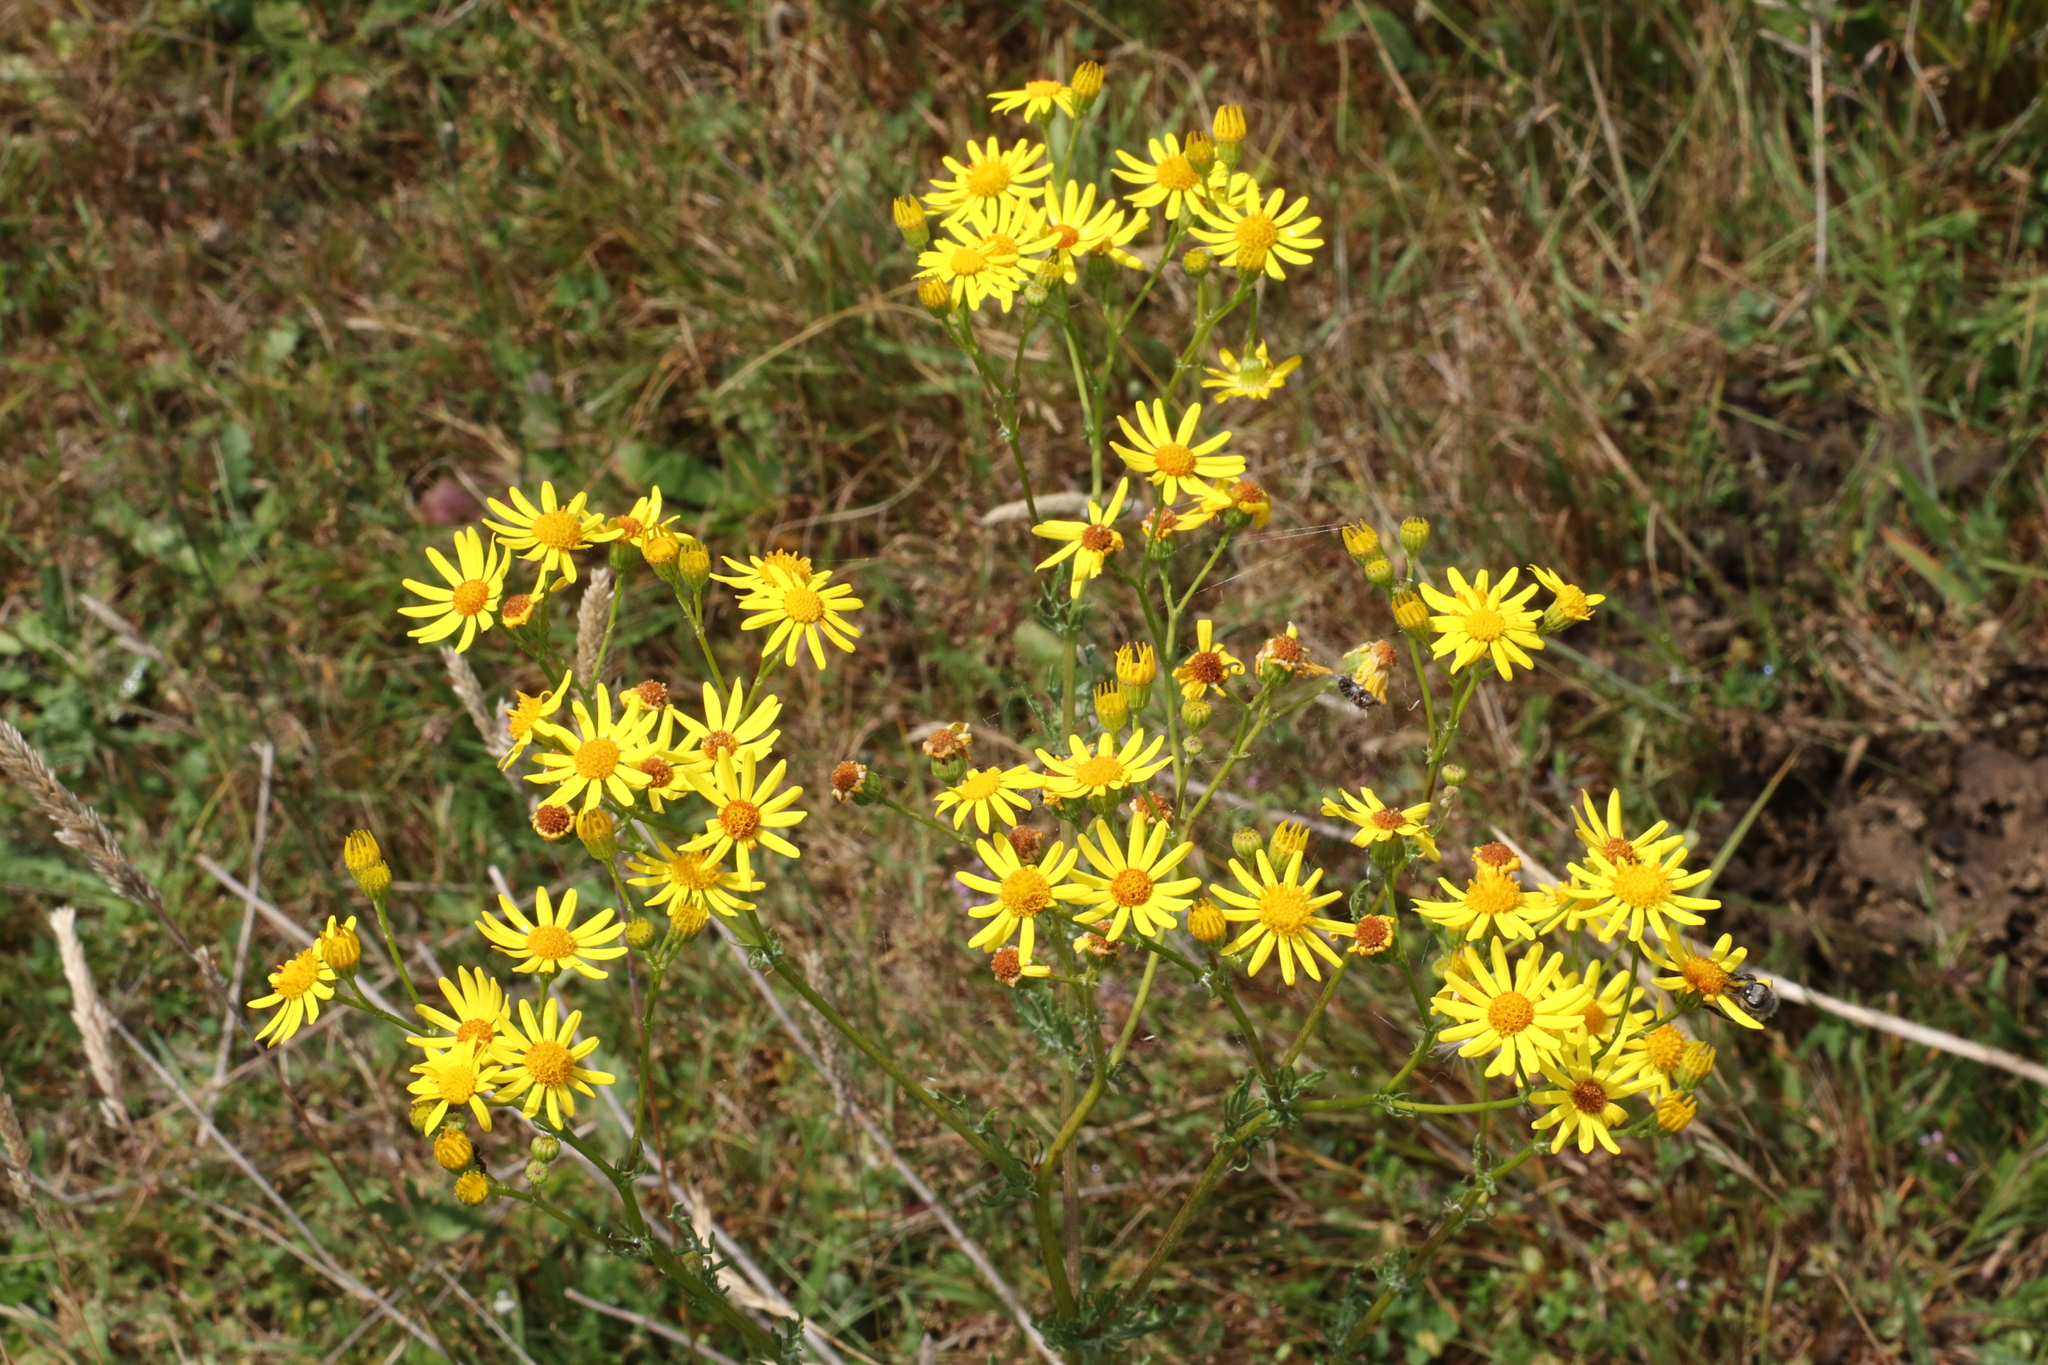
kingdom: Plantae
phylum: Tracheophyta
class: Magnoliopsida
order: Asterales
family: Asteraceae
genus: Jacobaea
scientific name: Jacobaea vulgaris
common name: Stinking willie
